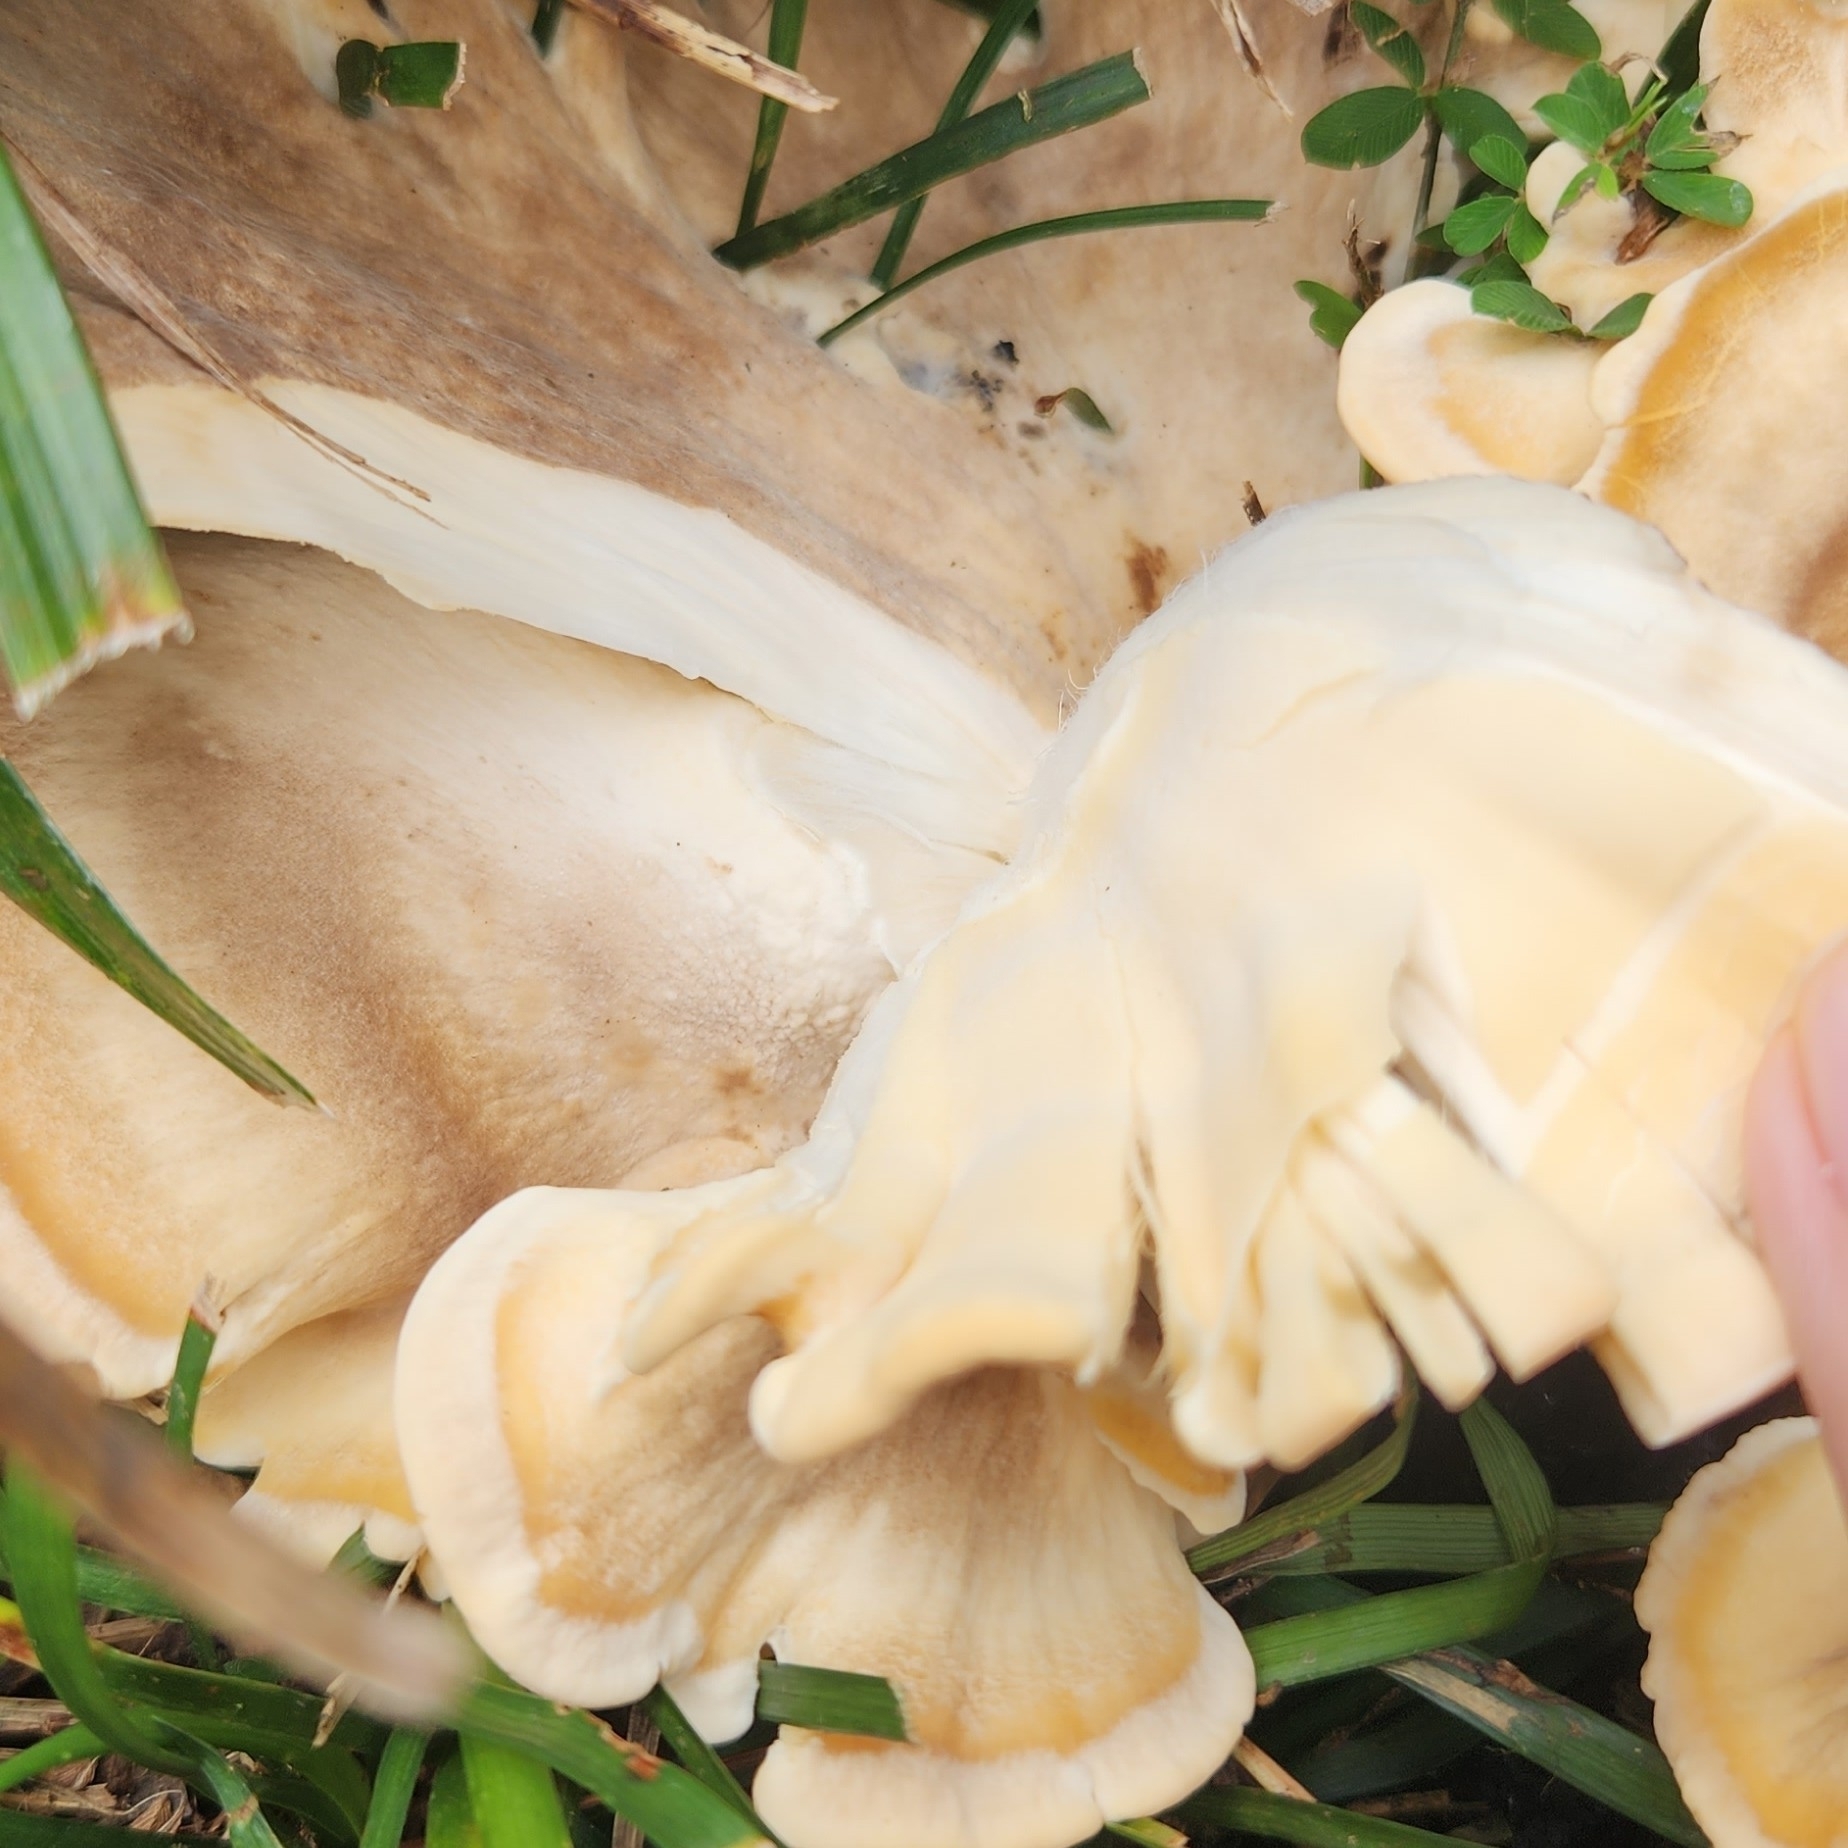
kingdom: Fungi
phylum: Basidiomycota
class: Agaricomycetes
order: Polyporales
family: Meripilaceae
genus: Meripilus
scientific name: Meripilus sumstinei
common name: Black-staining polypore
